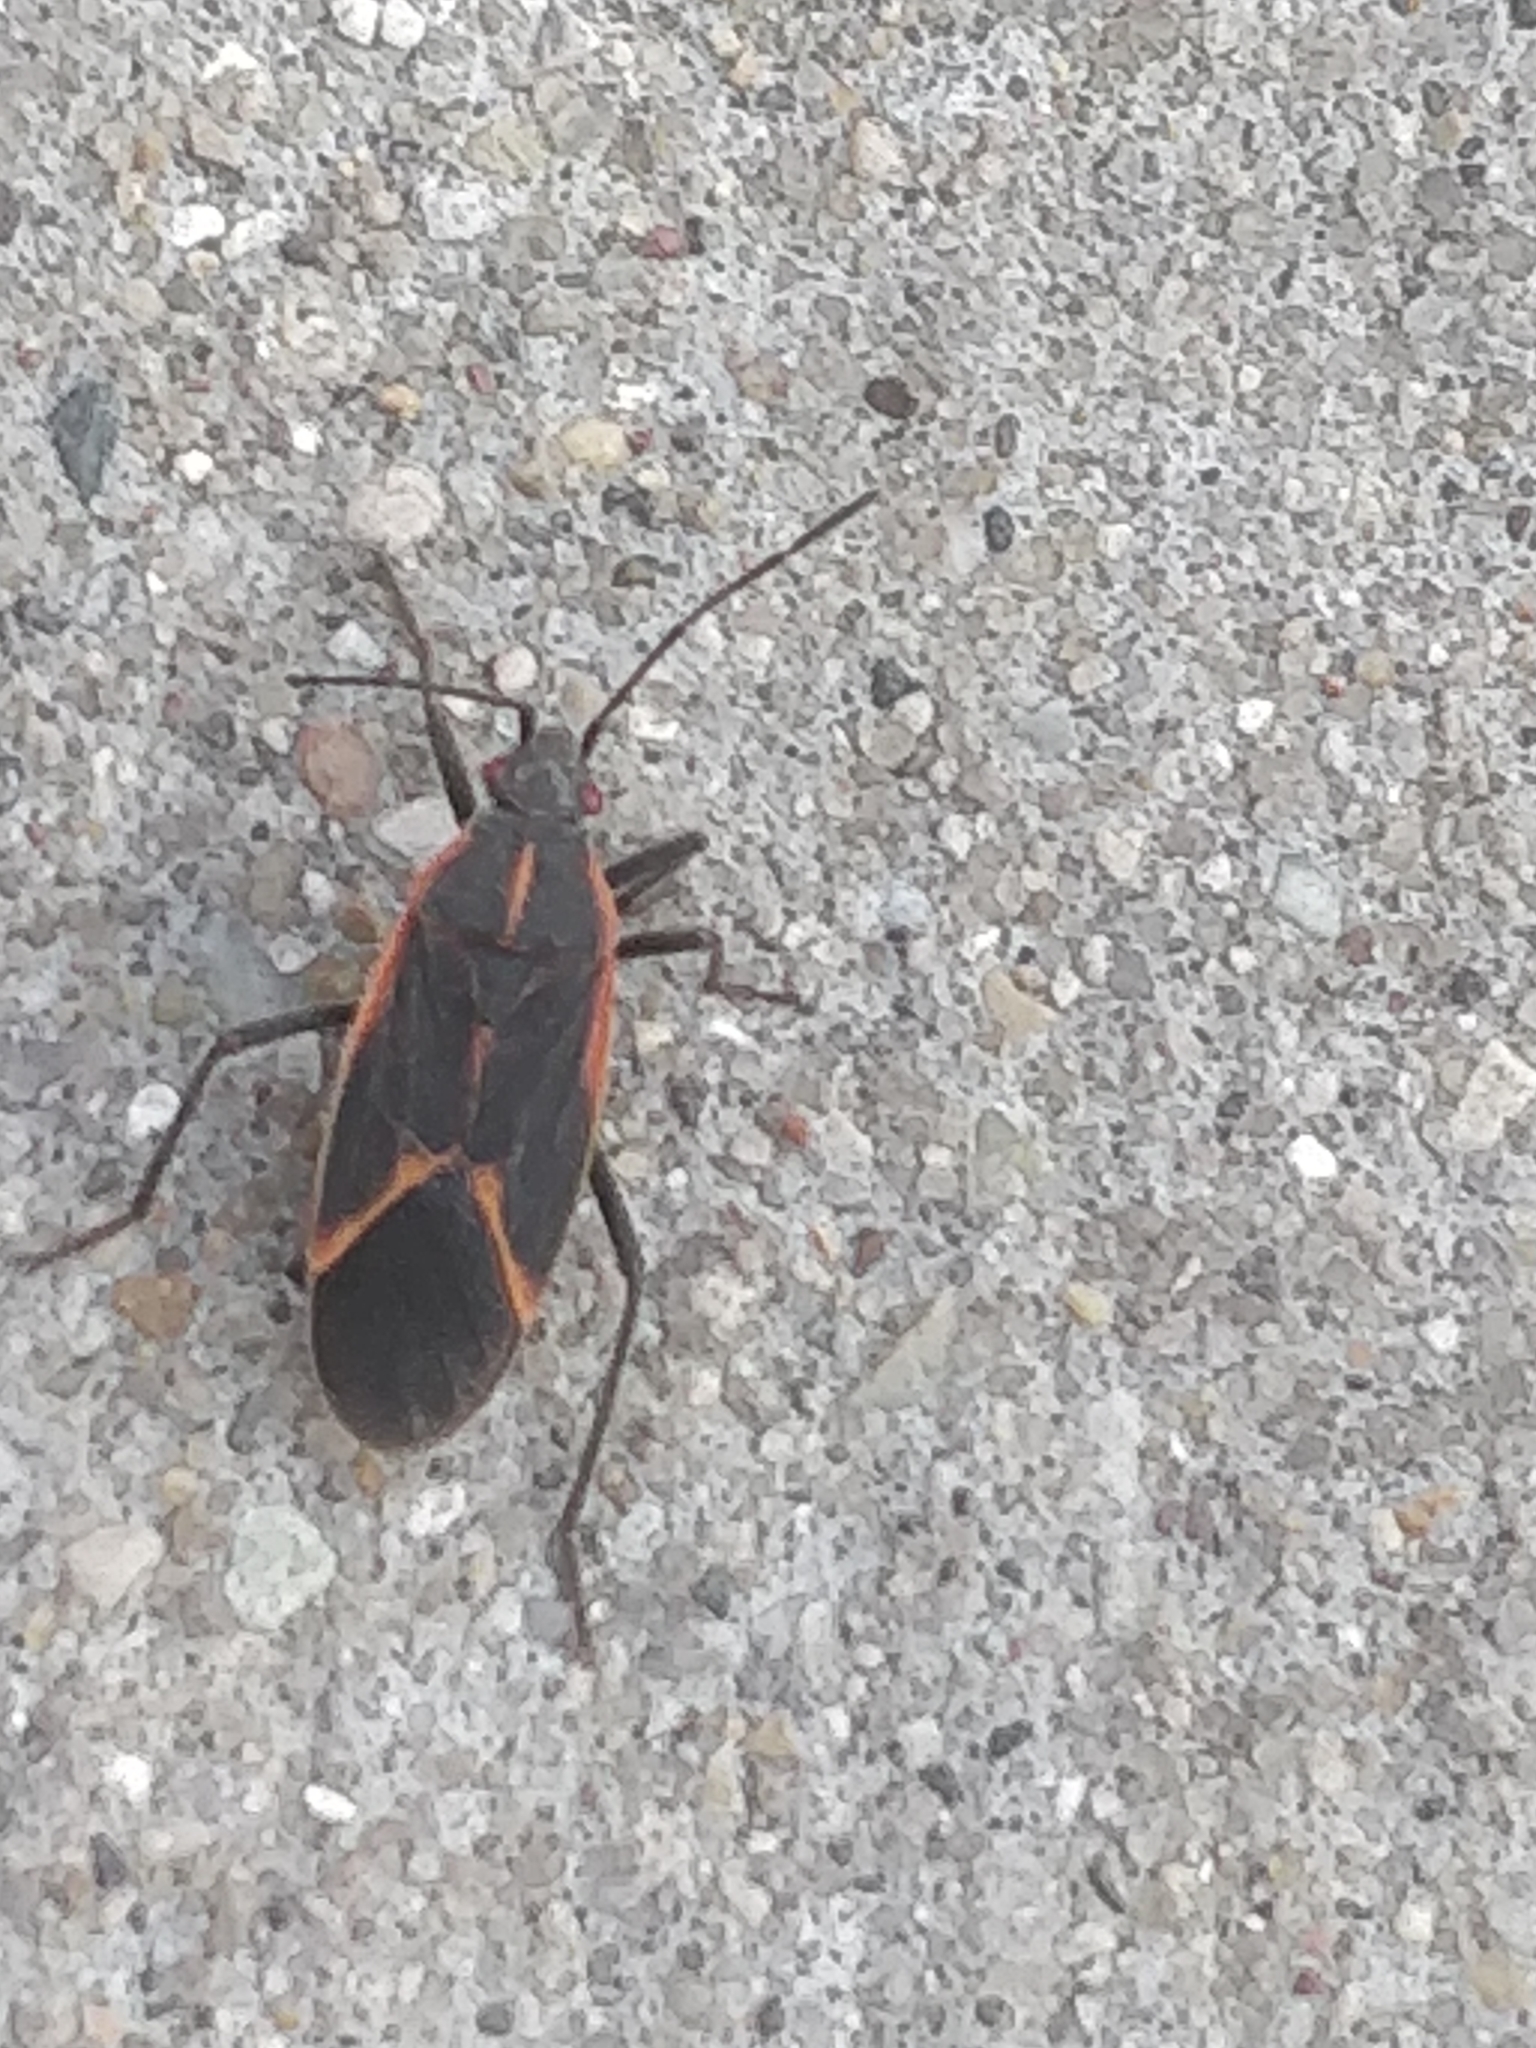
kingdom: Animalia
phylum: Arthropoda
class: Insecta
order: Hemiptera
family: Rhopalidae
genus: Boisea
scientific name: Boisea trivittata
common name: Boxelder bug
